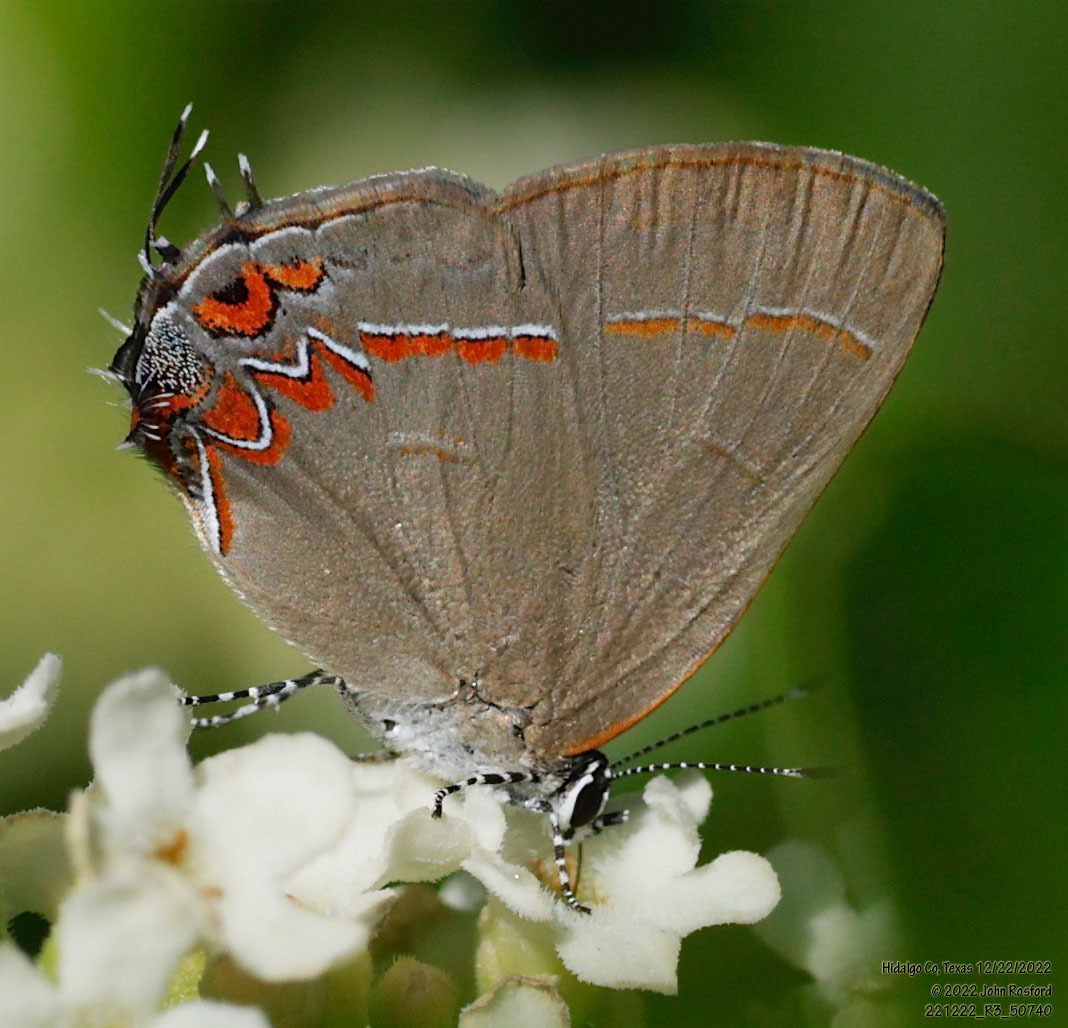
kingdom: Animalia
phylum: Arthropoda
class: Insecta
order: Lepidoptera
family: Lycaenidae
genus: Calycopis
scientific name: Calycopis isobeon
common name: Dusky-blue groundstreak
